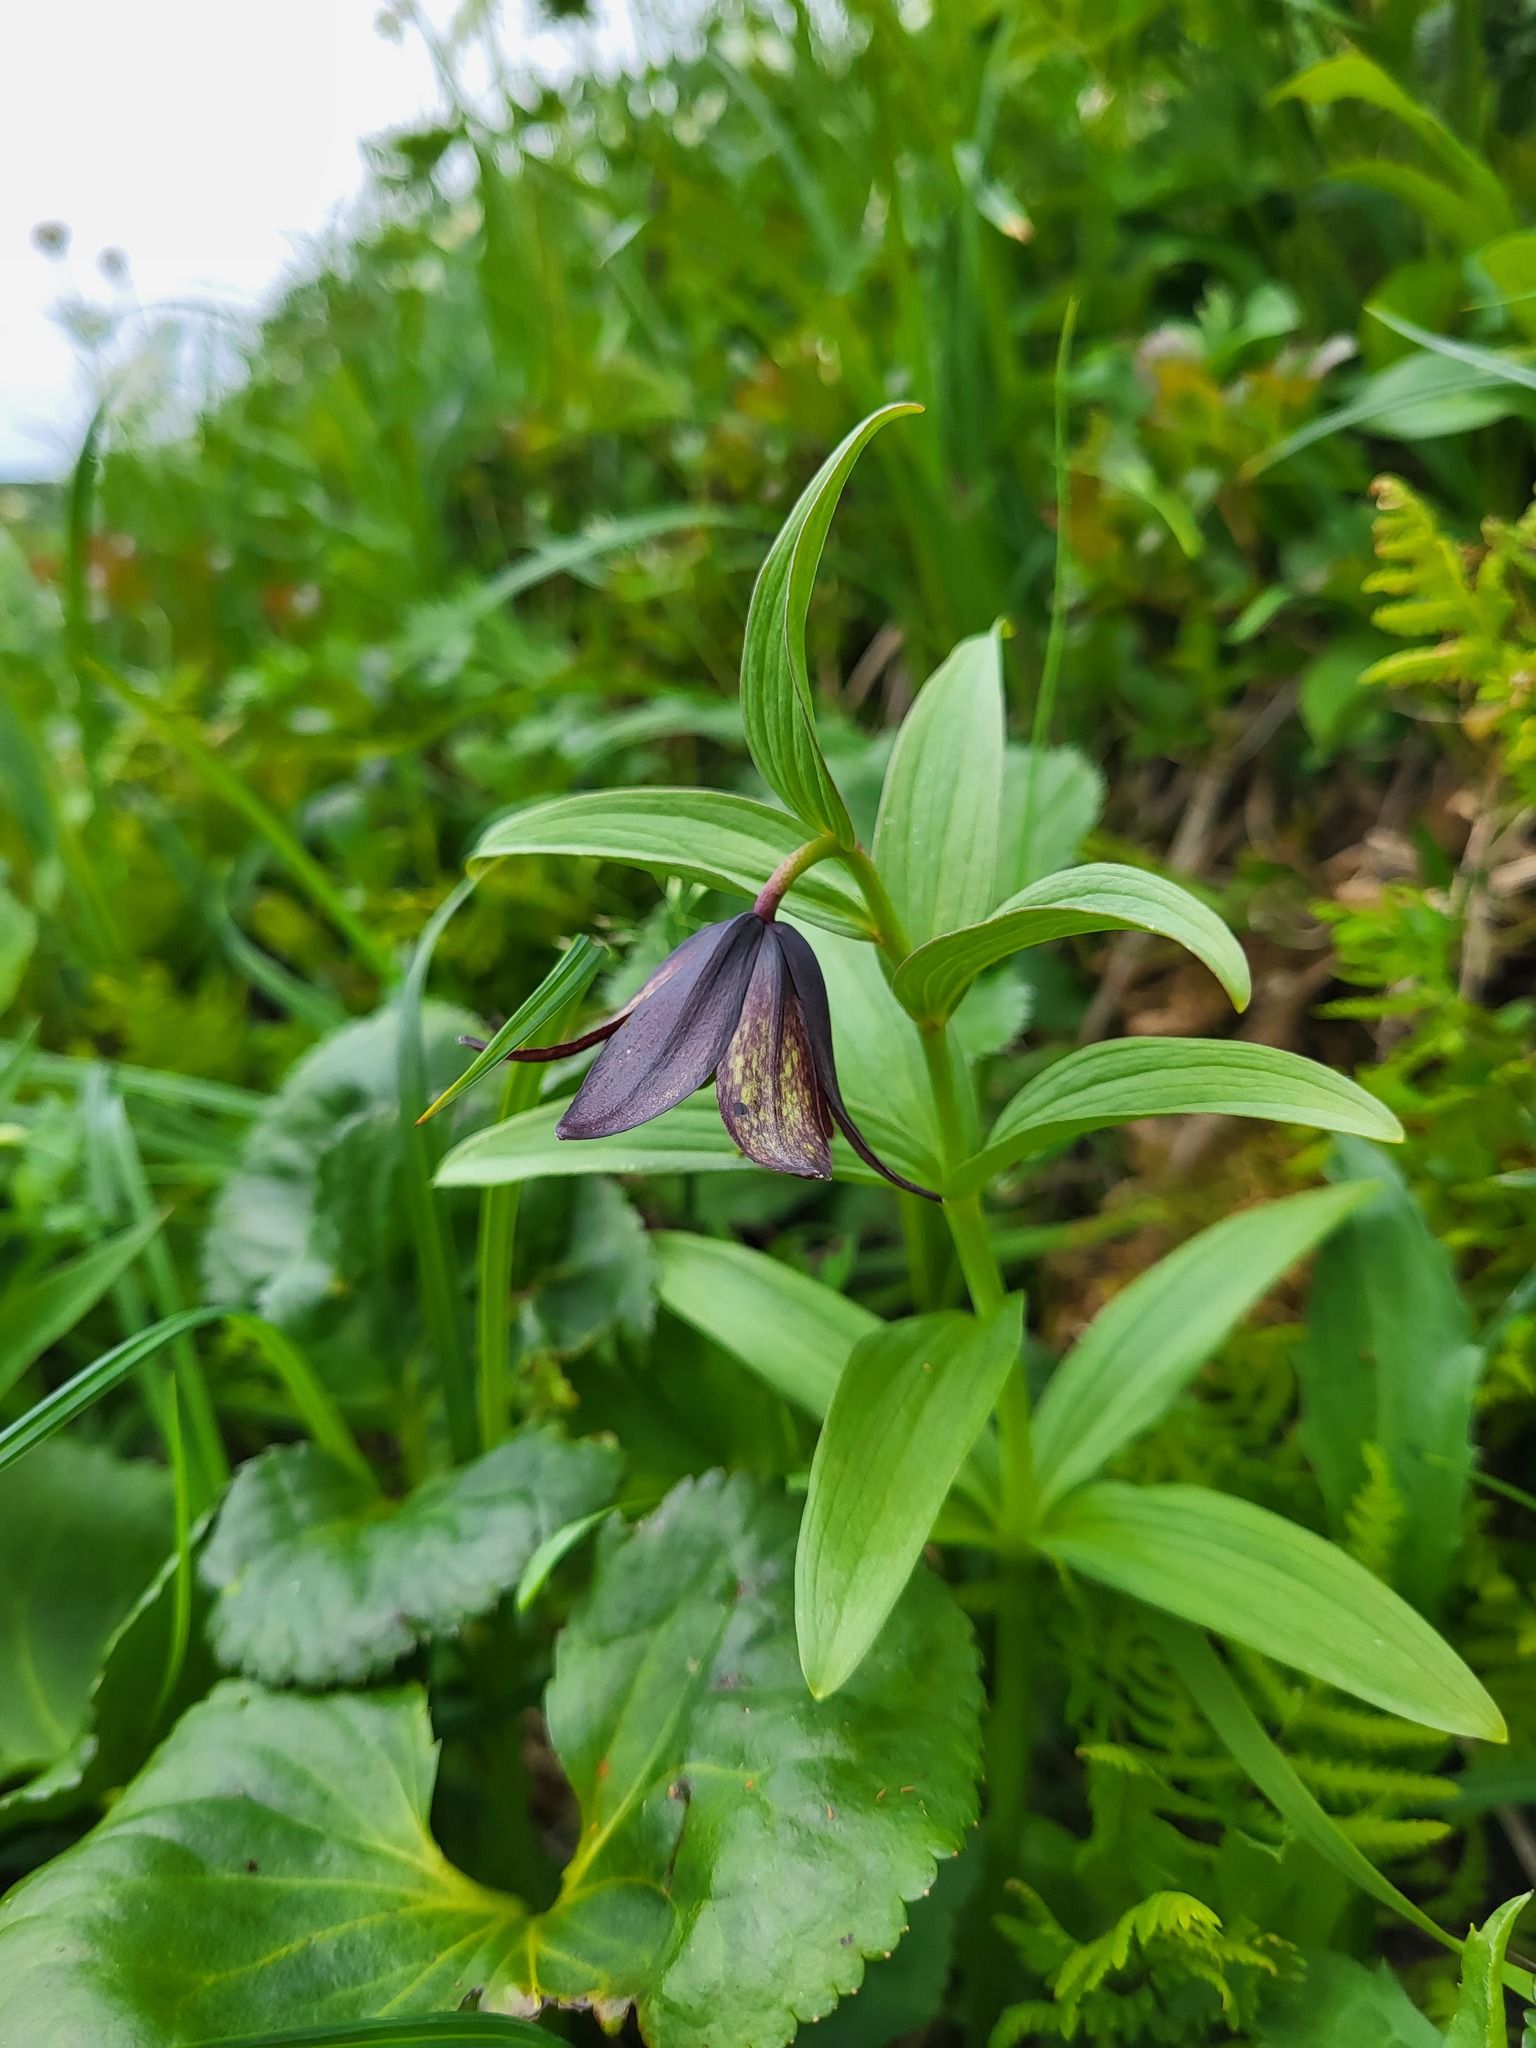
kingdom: Plantae
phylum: Tracheophyta
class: Liliopsida
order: Liliales
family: Liliaceae
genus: Fritillaria
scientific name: Fritillaria camschatcensis
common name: Kamchatka fritillary
